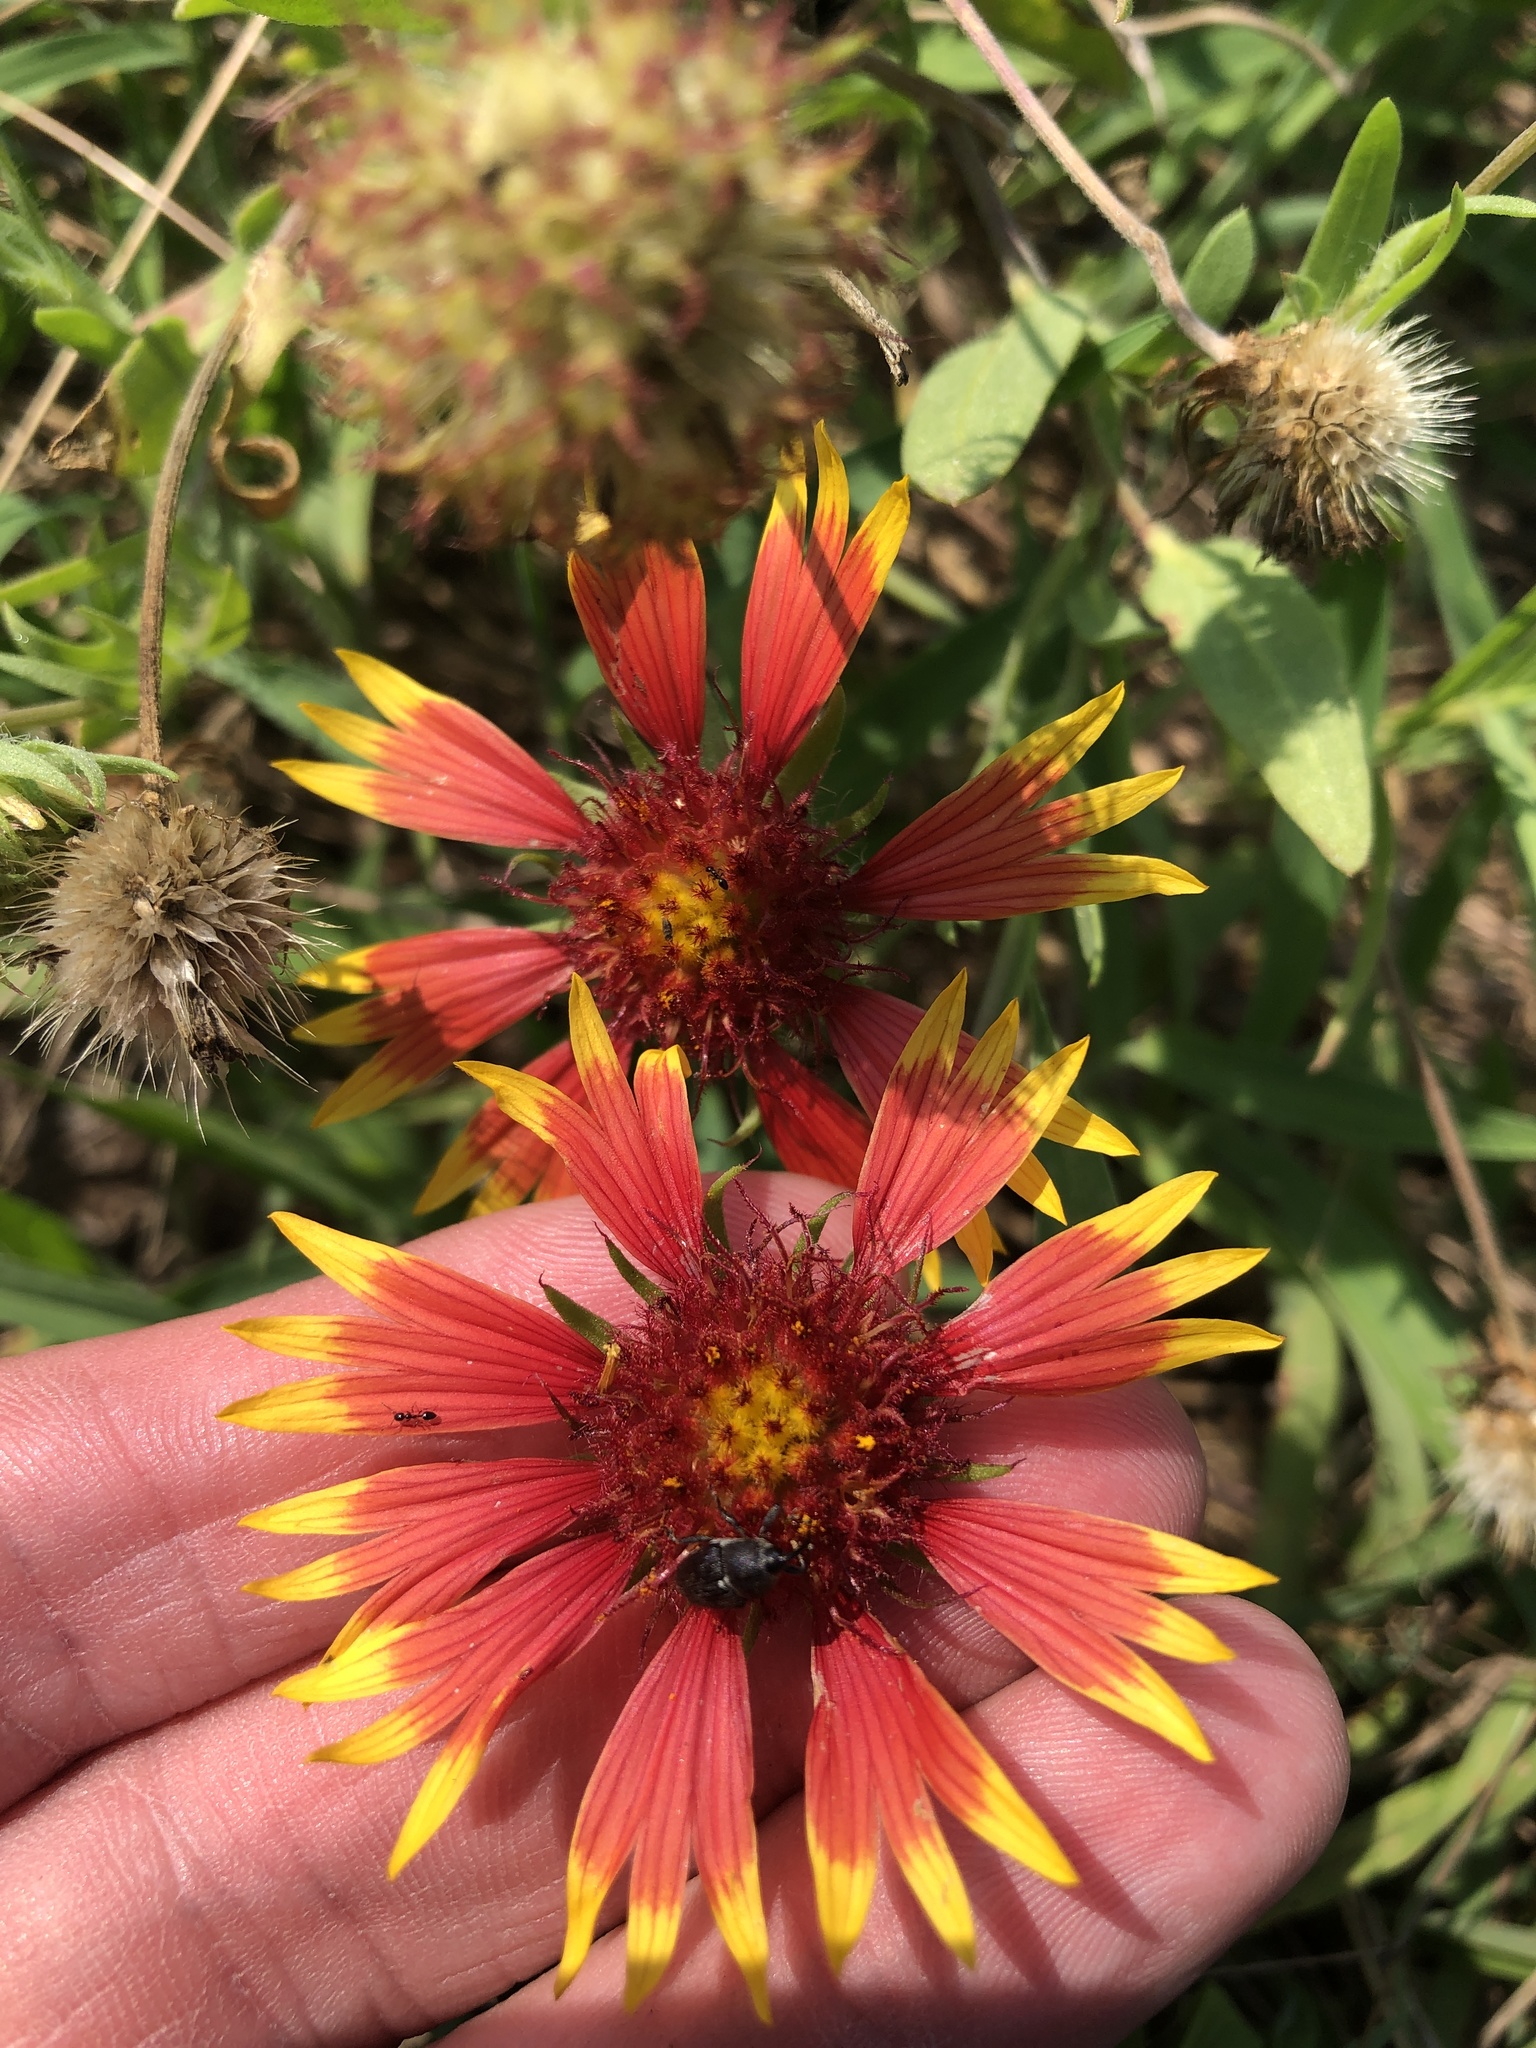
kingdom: Plantae
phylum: Tracheophyta
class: Magnoliopsida
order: Asterales
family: Asteraceae
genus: Gaillardia
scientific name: Gaillardia pulchella
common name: Firewheel
